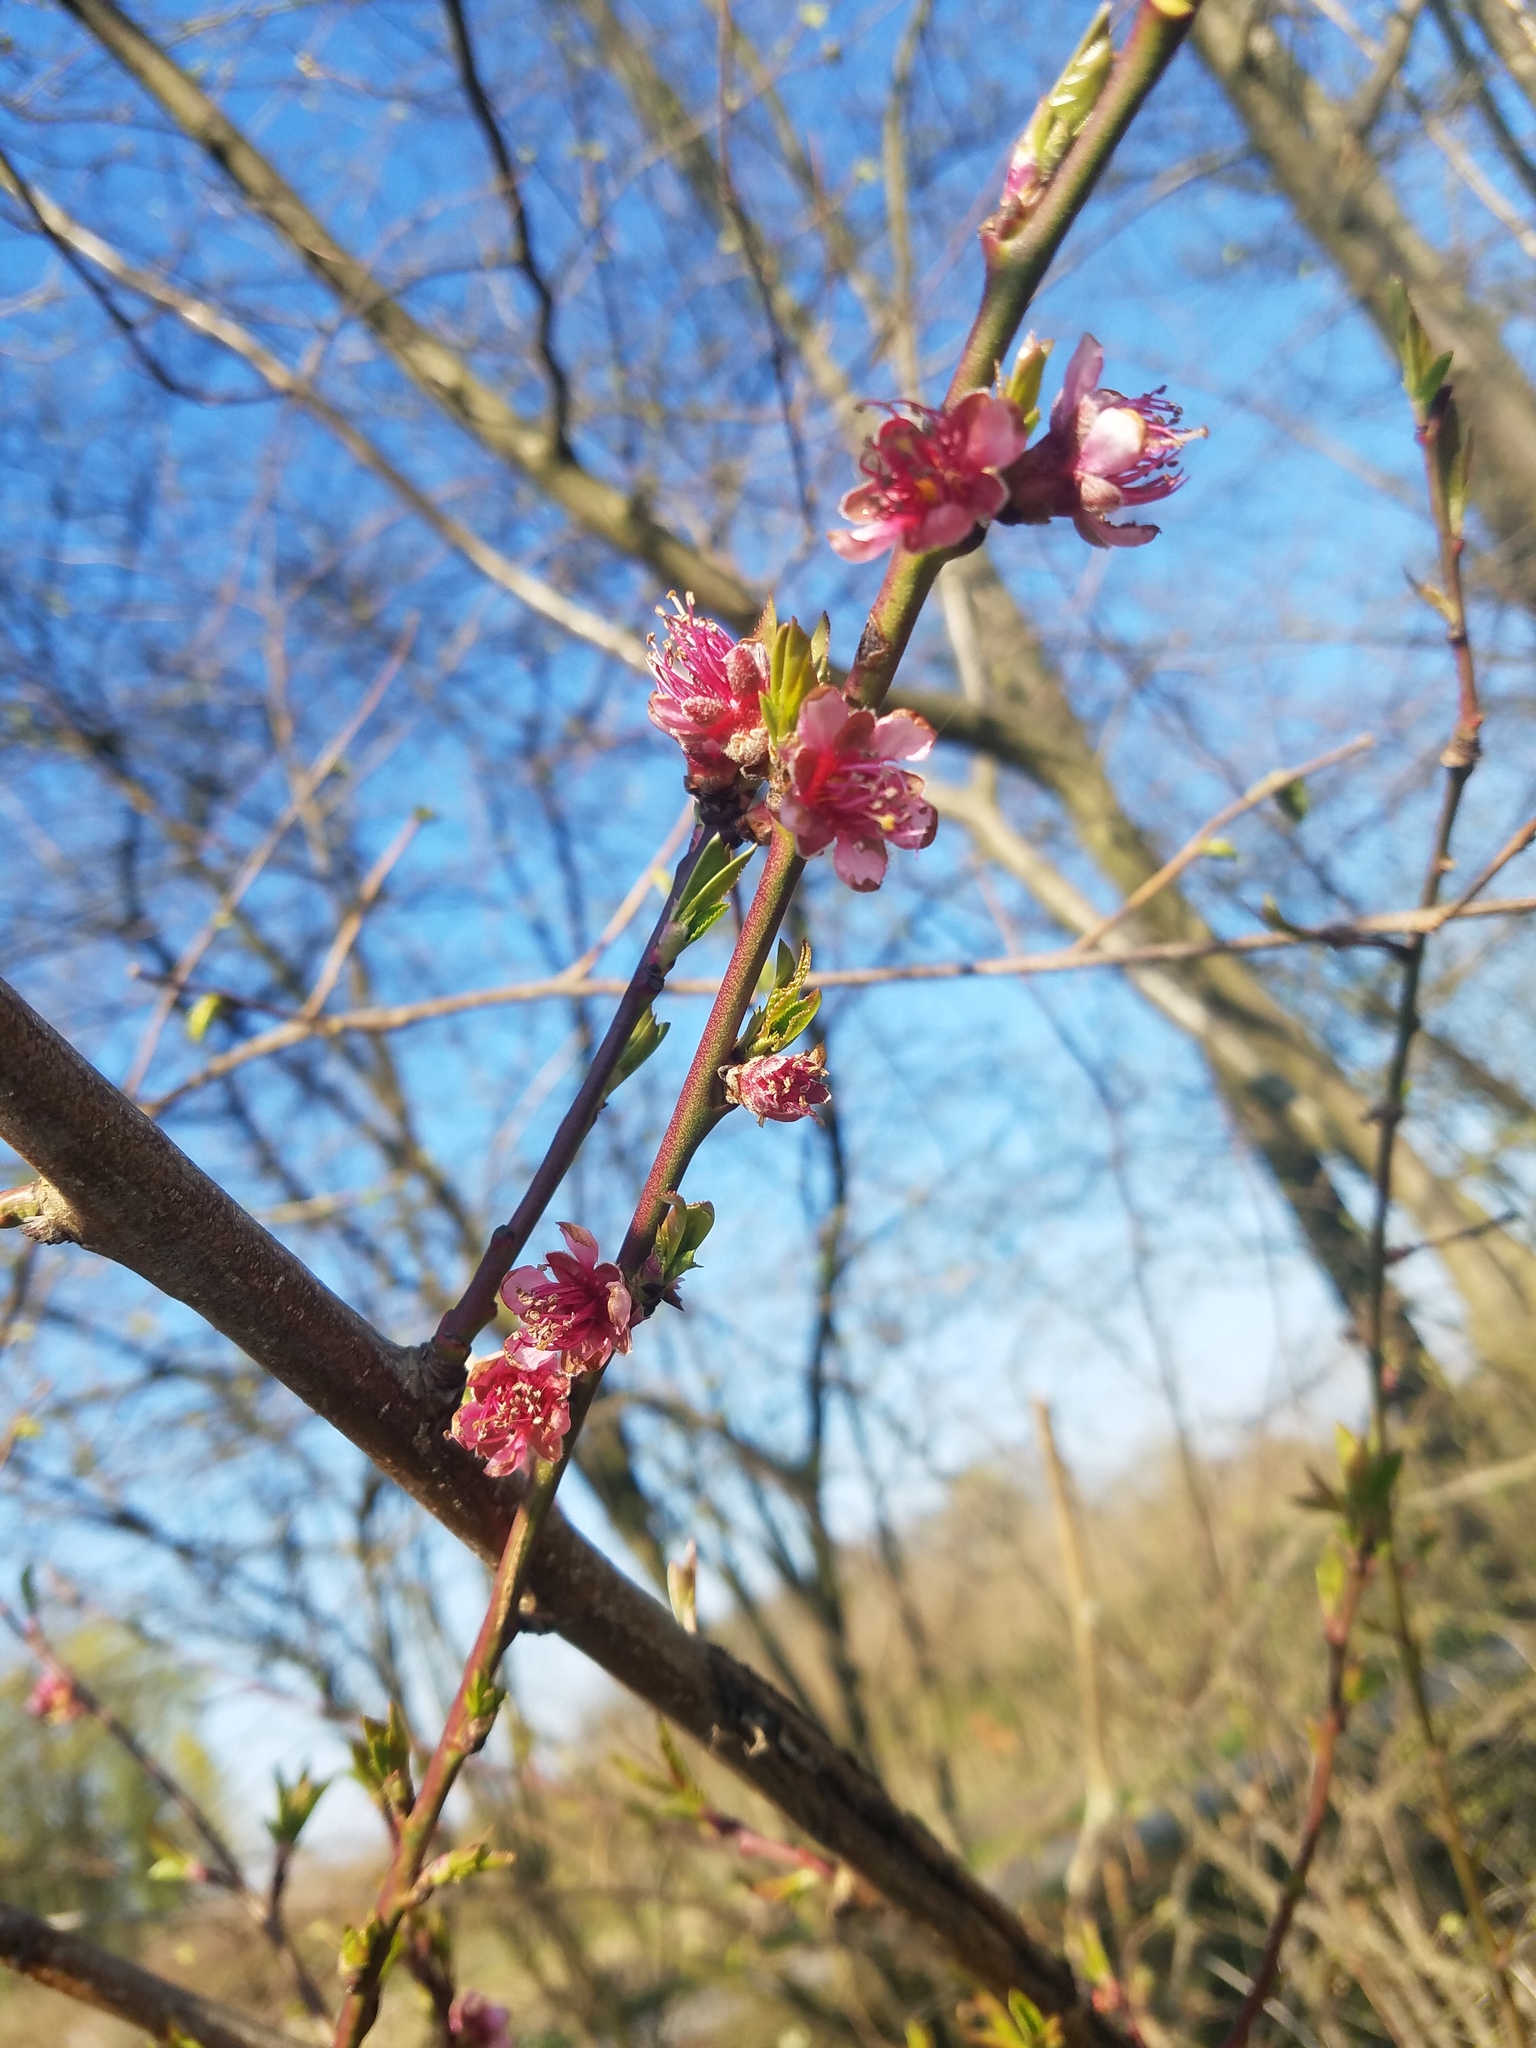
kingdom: Plantae
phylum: Tracheophyta
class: Magnoliopsida
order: Rosales
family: Rosaceae
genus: Prunus
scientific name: Prunus persica
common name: Peach
